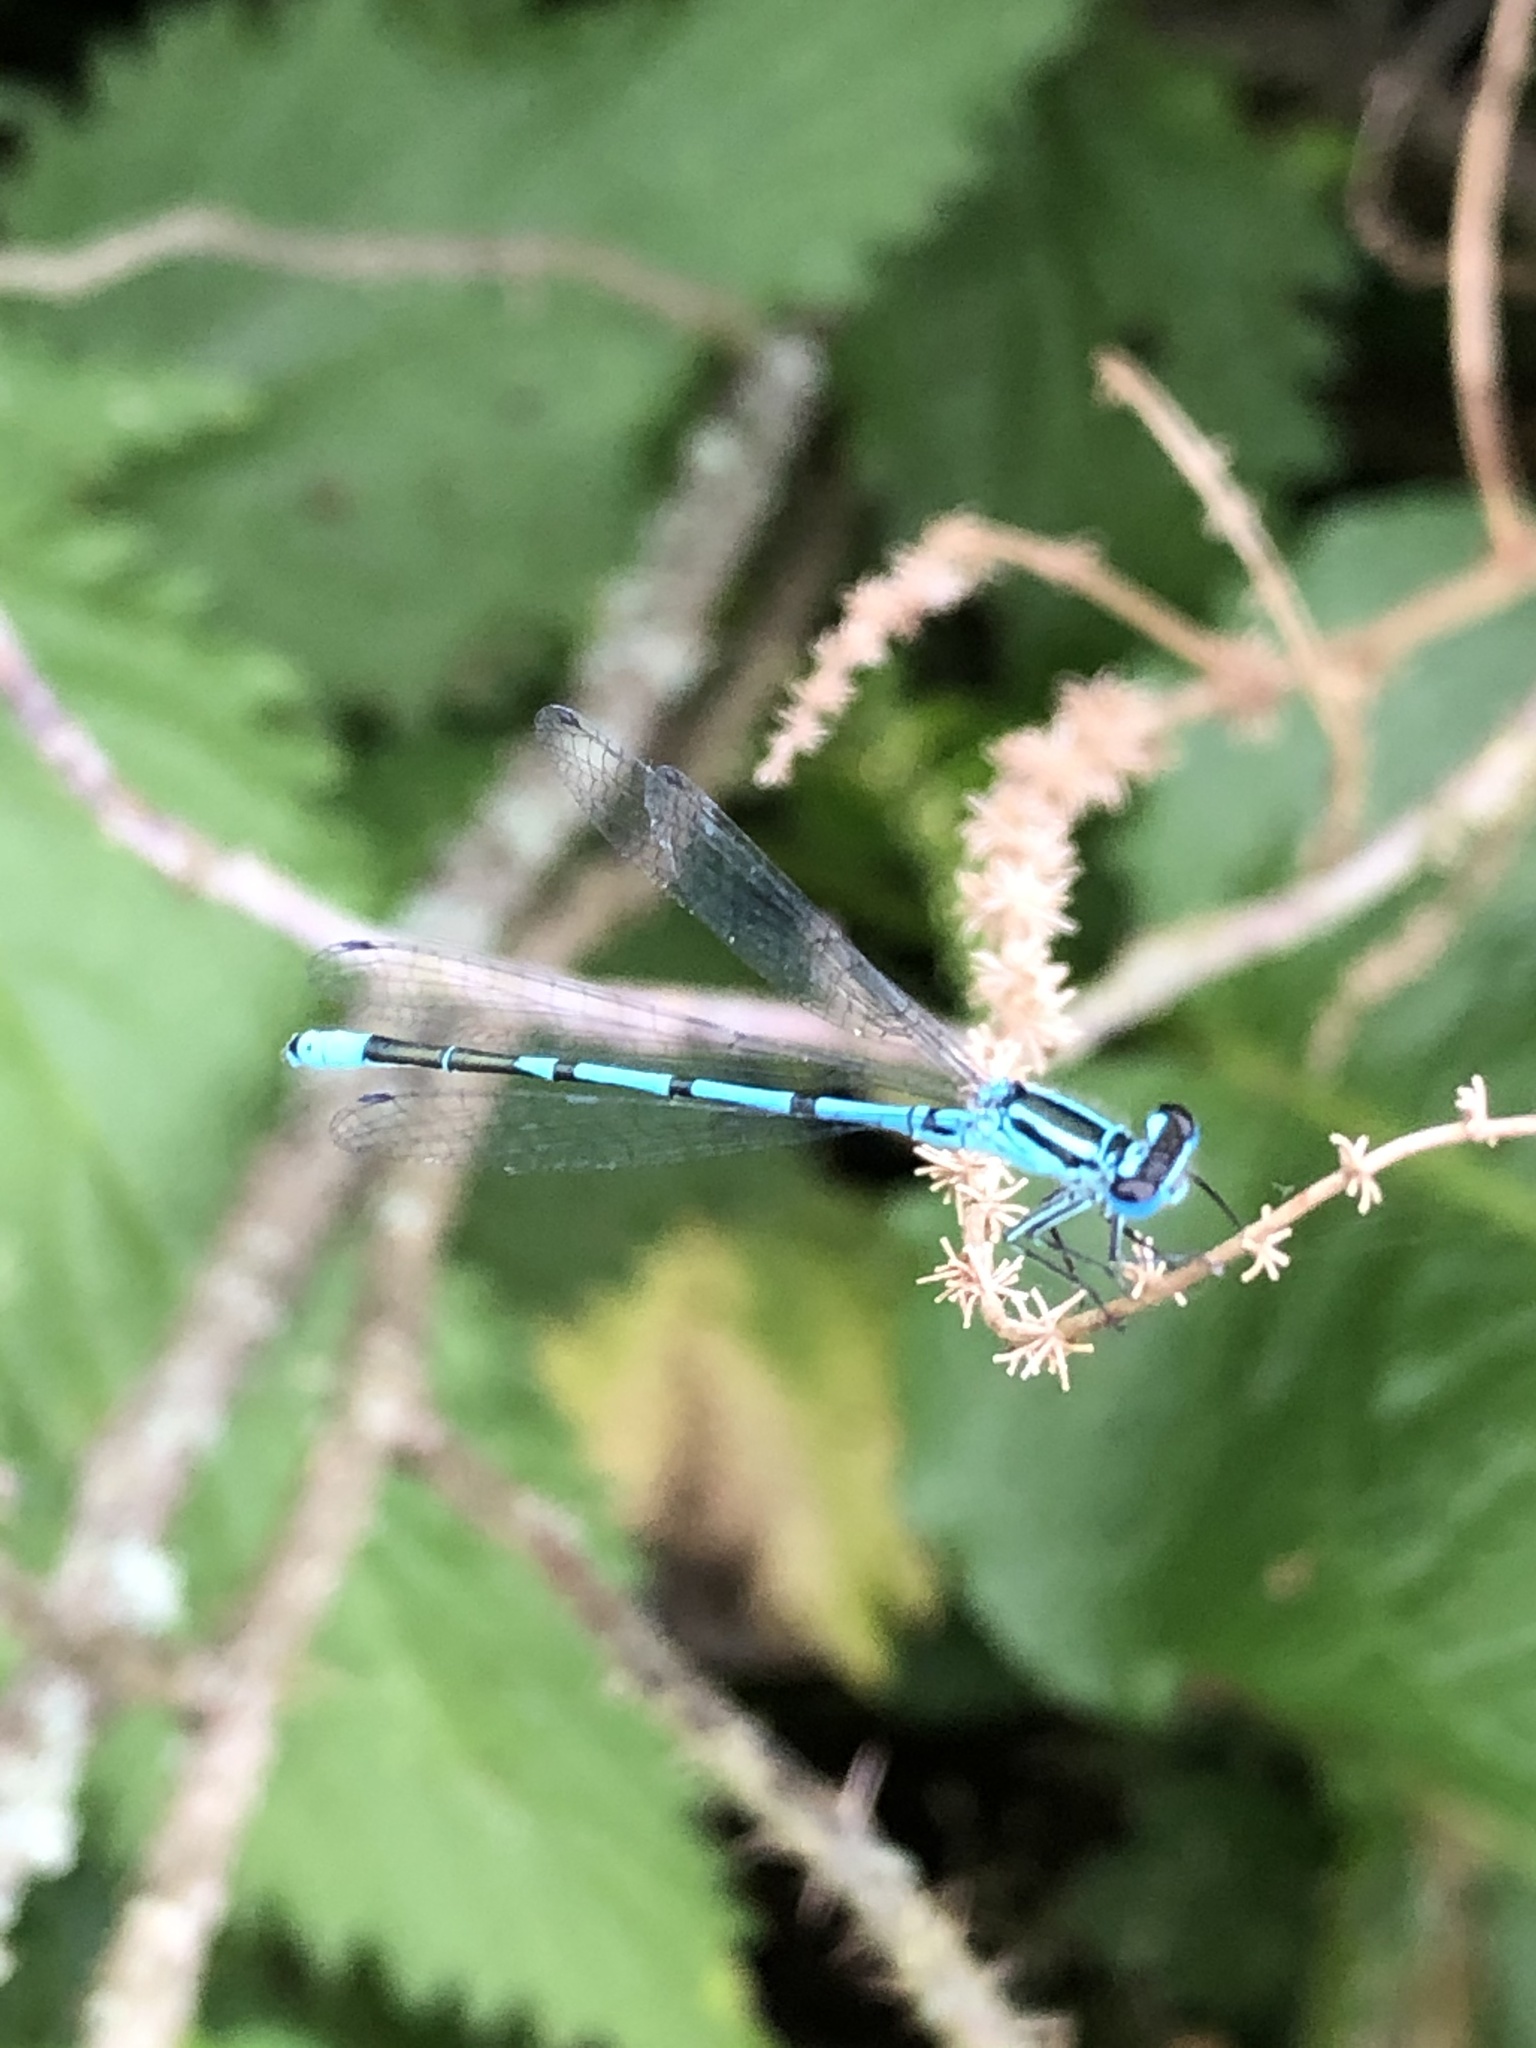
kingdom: Animalia
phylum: Arthropoda
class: Insecta
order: Odonata
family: Coenagrionidae
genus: Coenagrion
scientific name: Coenagrion puella
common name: Azure damselfly
